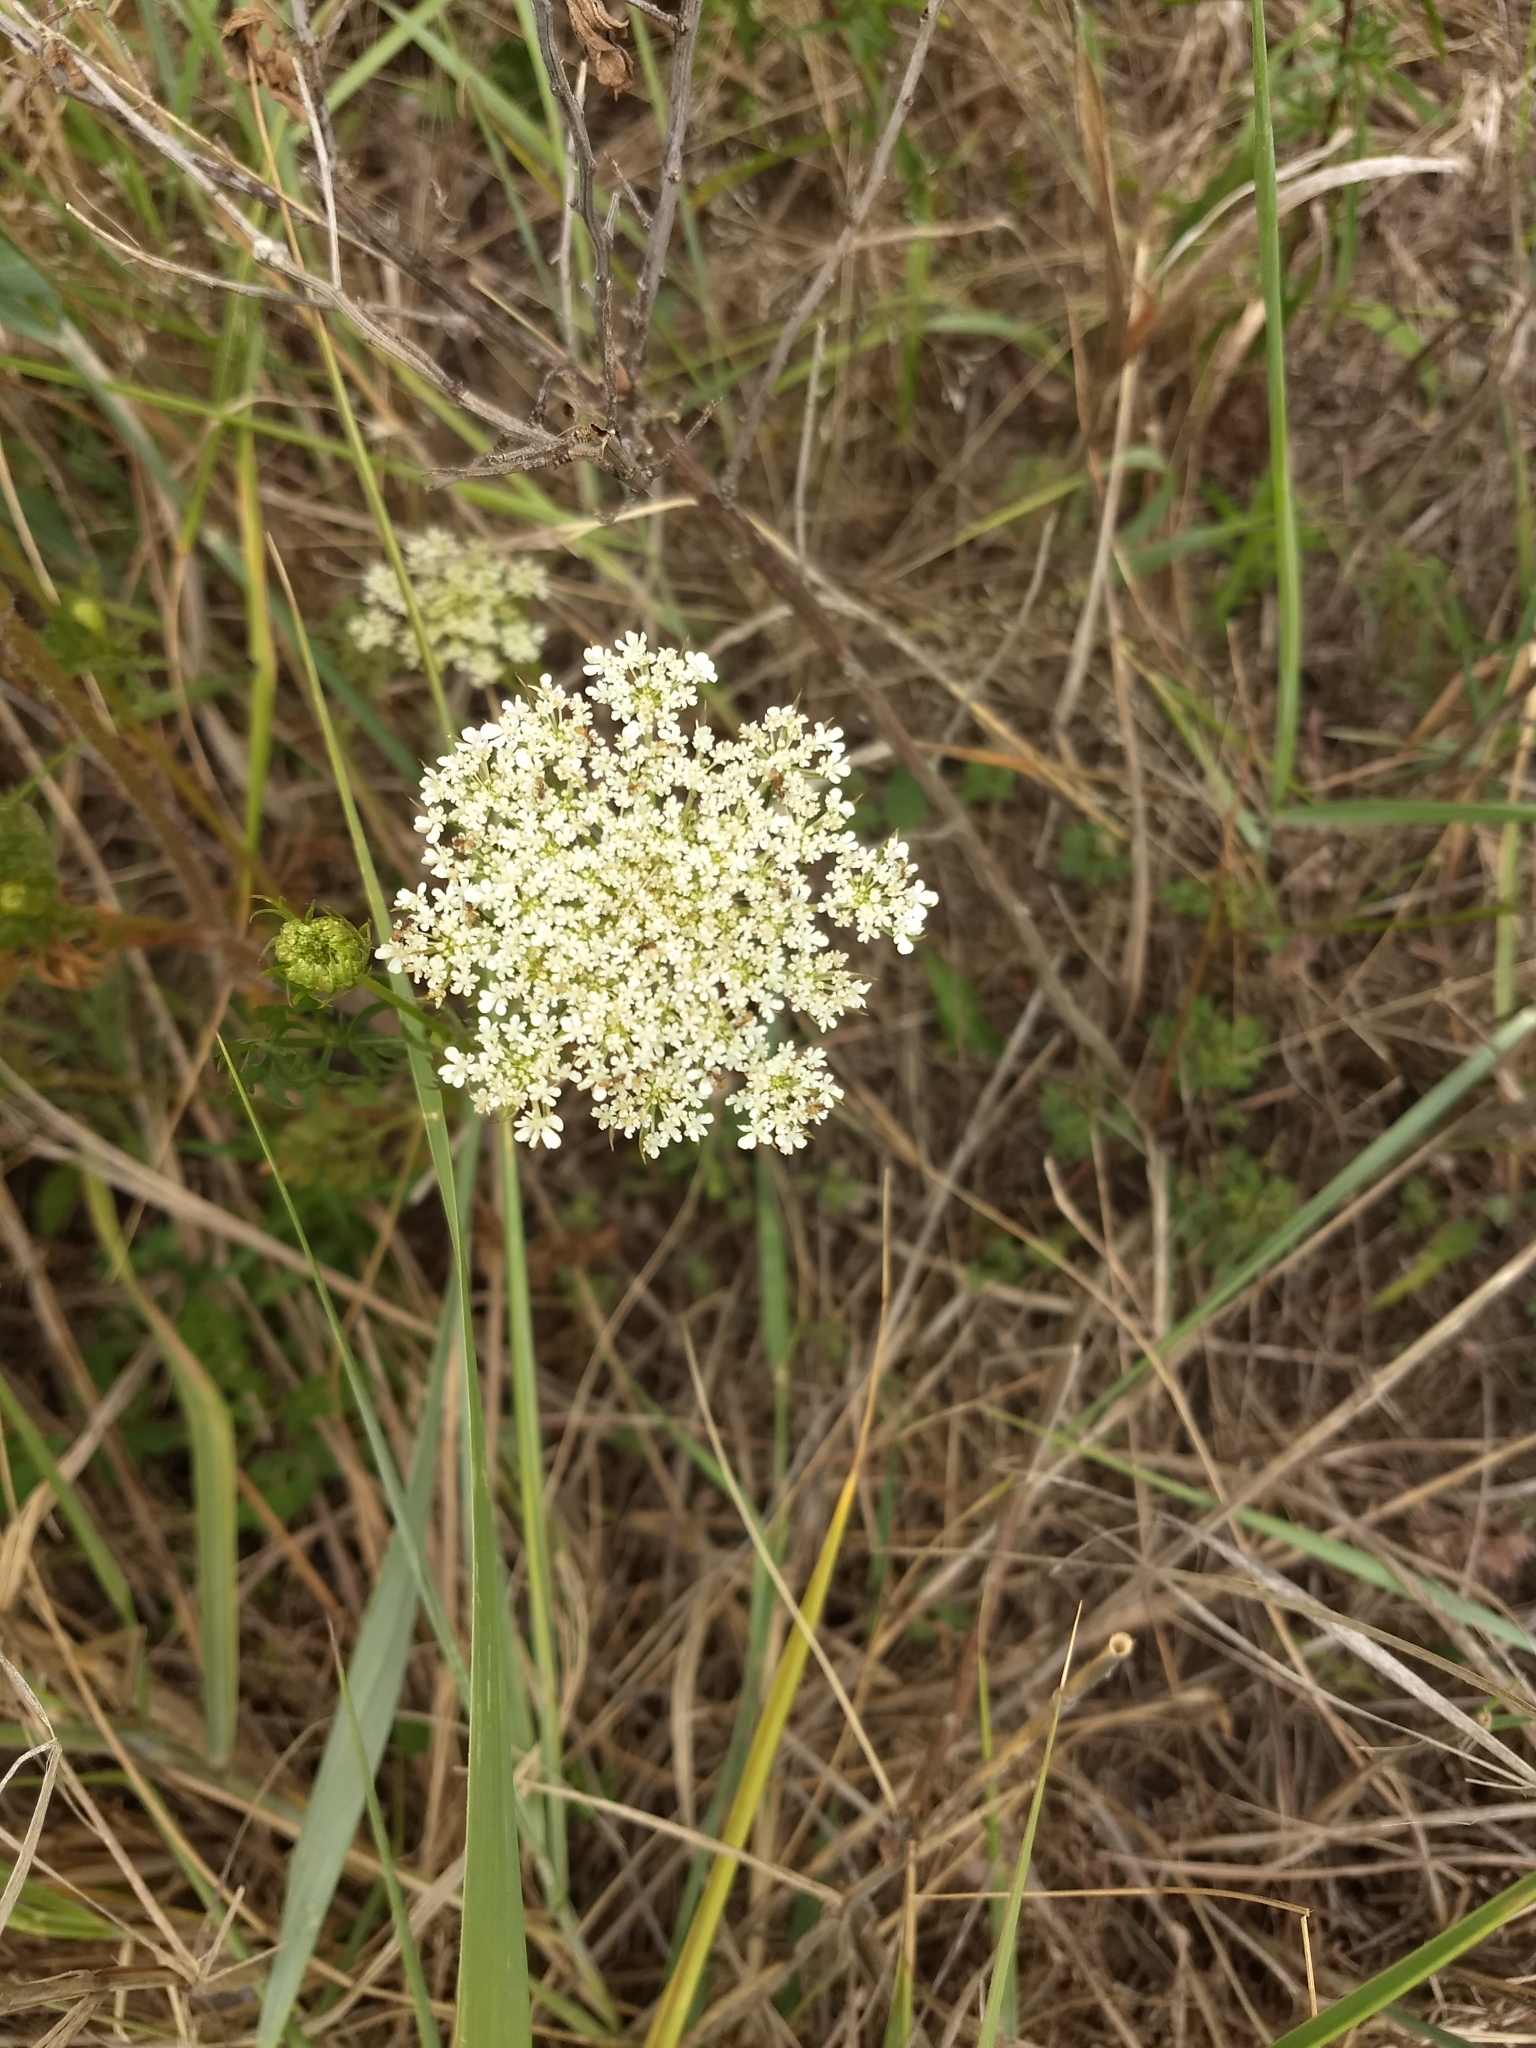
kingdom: Plantae
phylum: Tracheophyta
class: Magnoliopsida
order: Apiales
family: Apiaceae
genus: Daucus
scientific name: Daucus carota
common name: Wild carrot
